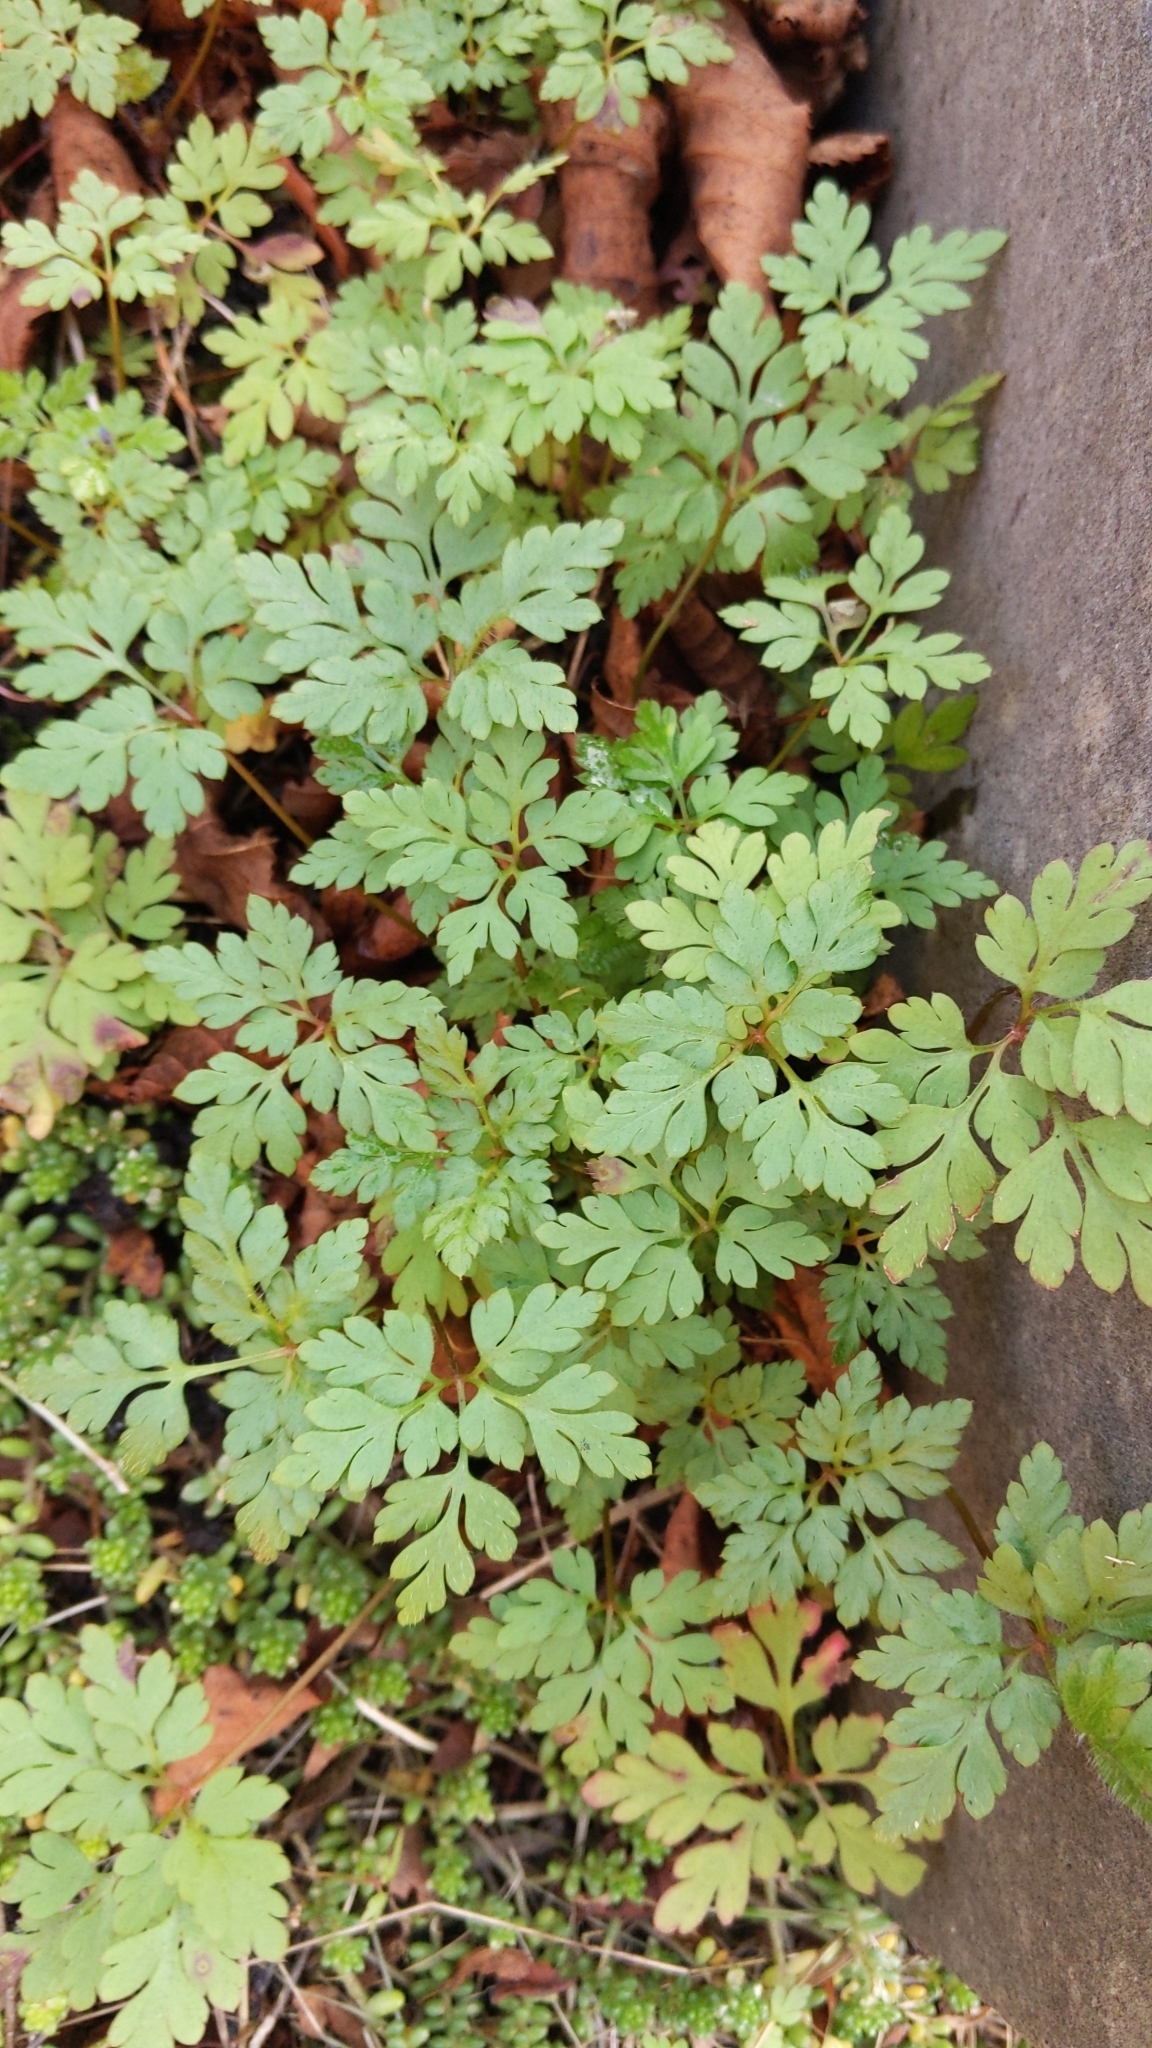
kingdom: Plantae
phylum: Tracheophyta
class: Magnoliopsida
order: Geraniales
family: Geraniaceae
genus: Geranium
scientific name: Geranium robertianum
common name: Herb-robert
